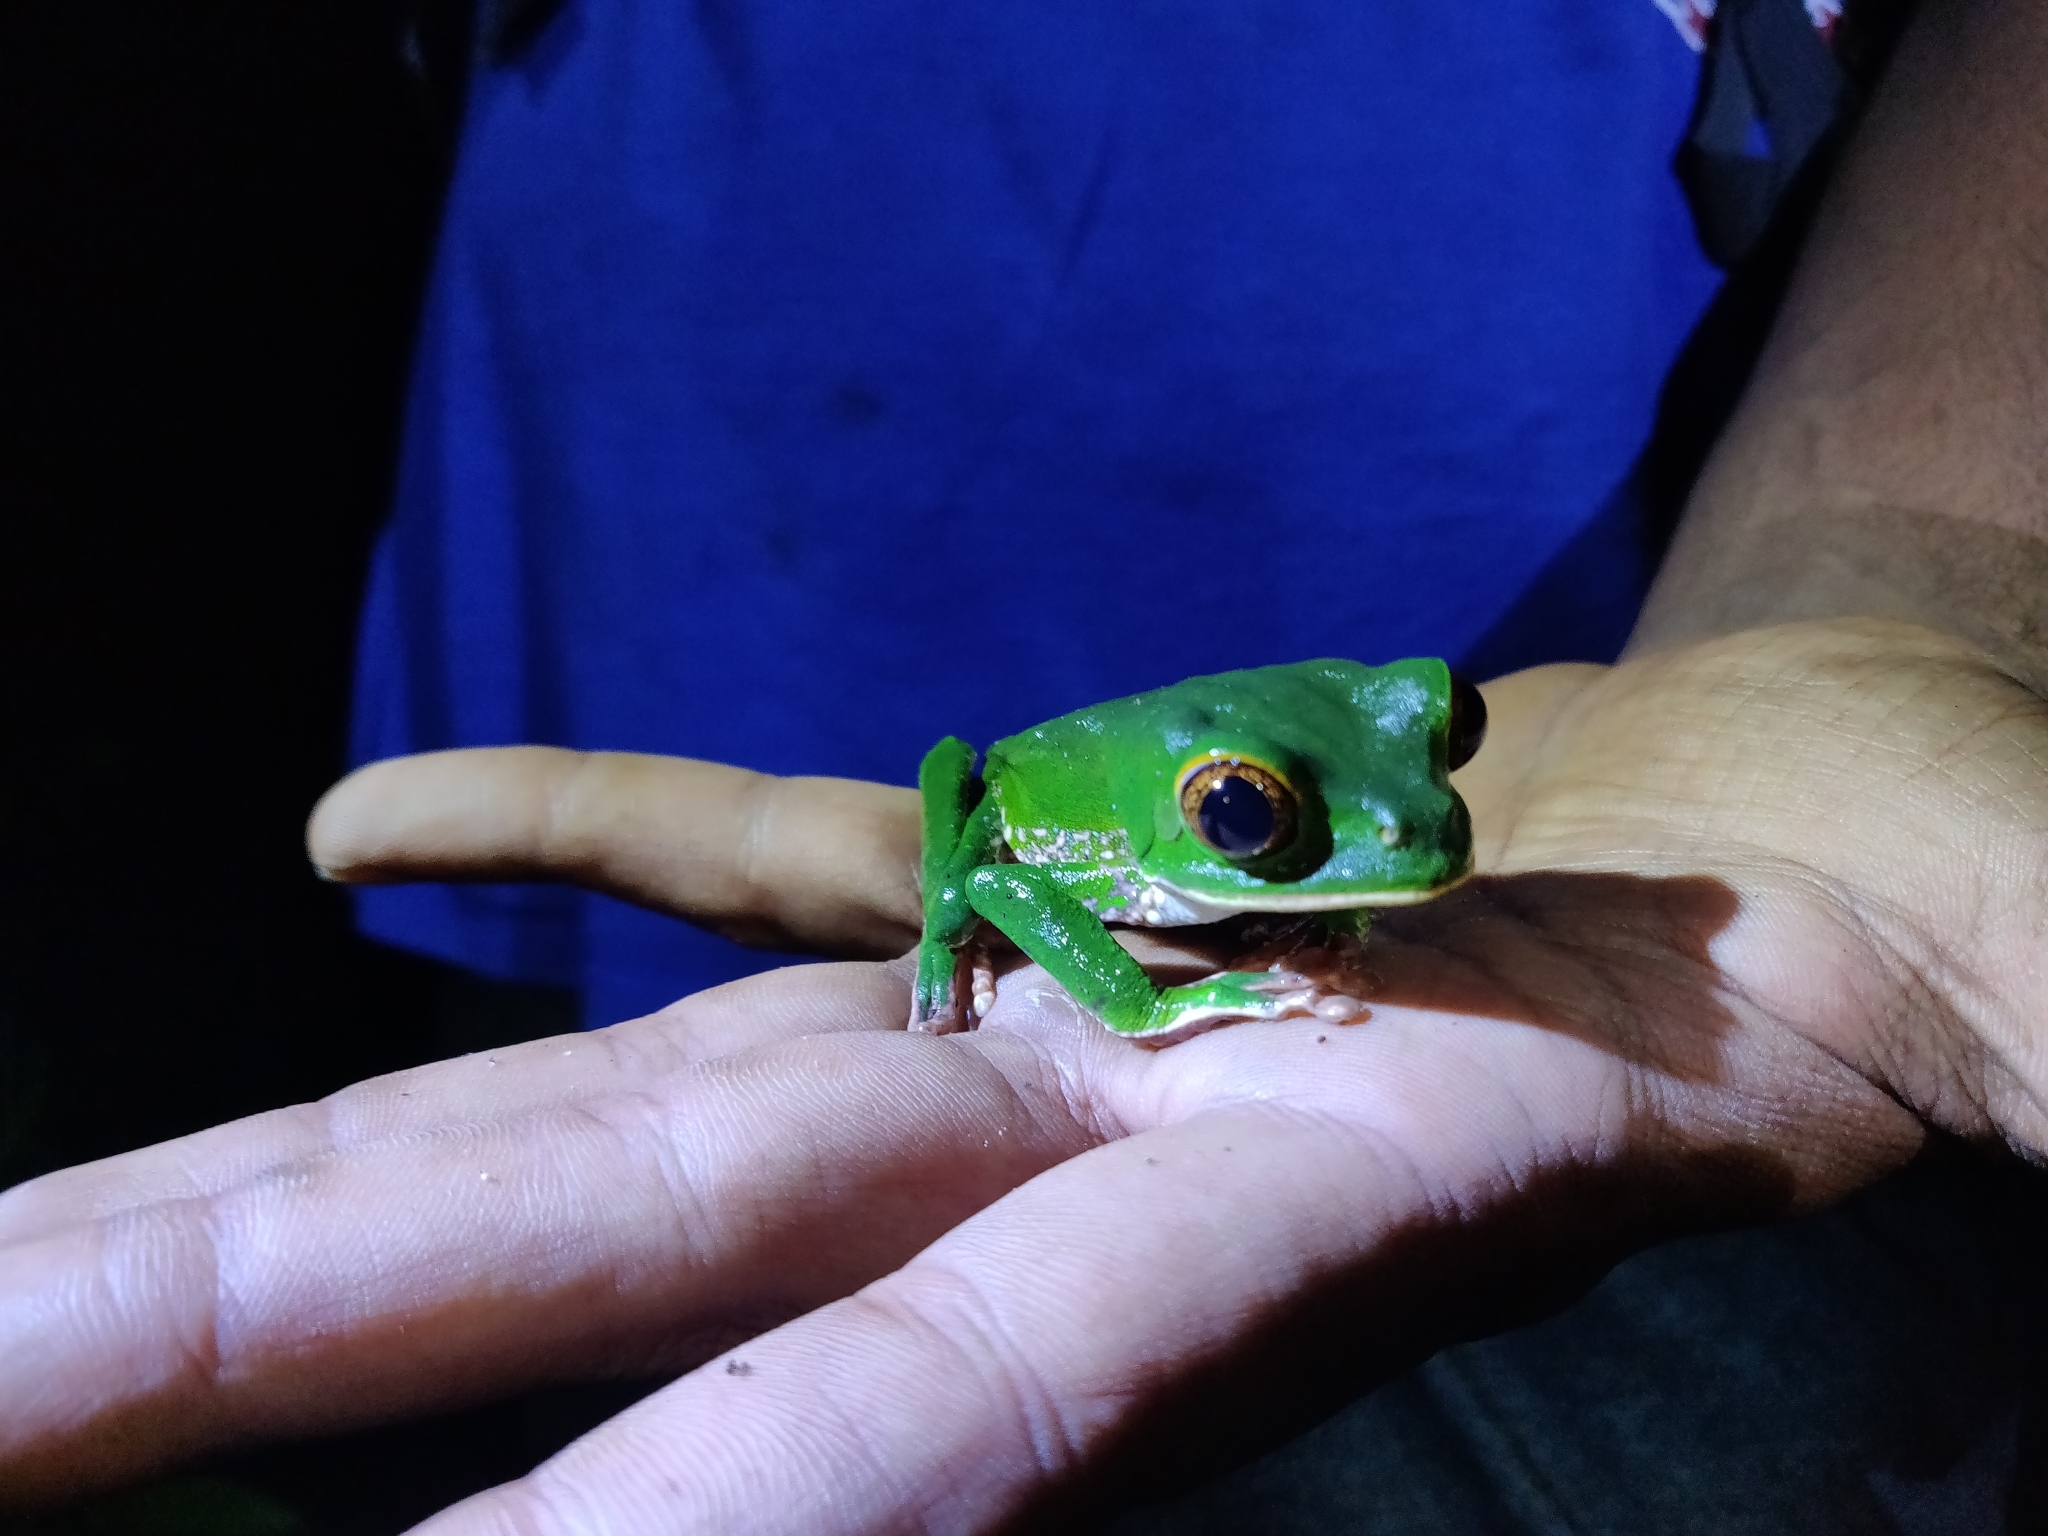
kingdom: Animalia
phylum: Chordata
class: Amphibia
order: Anura
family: Phyllomedusidae
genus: Phyllomedusa
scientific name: Phyllomedusa trinitatis
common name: Trinidad leaf-nesting frog
